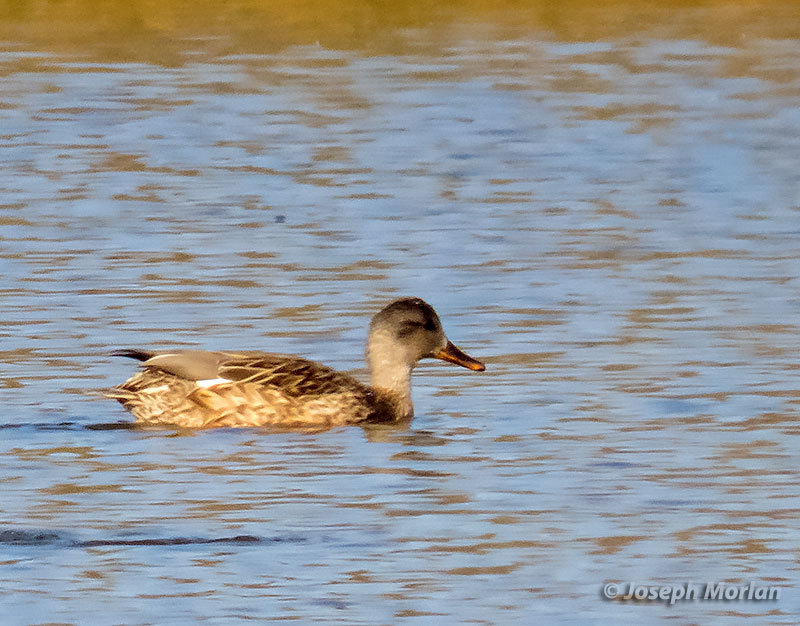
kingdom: Animalia
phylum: Chordata
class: Aves
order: Anseriformes
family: Anatidae
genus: Mareca
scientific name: Mareca strepera
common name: Gadwall
